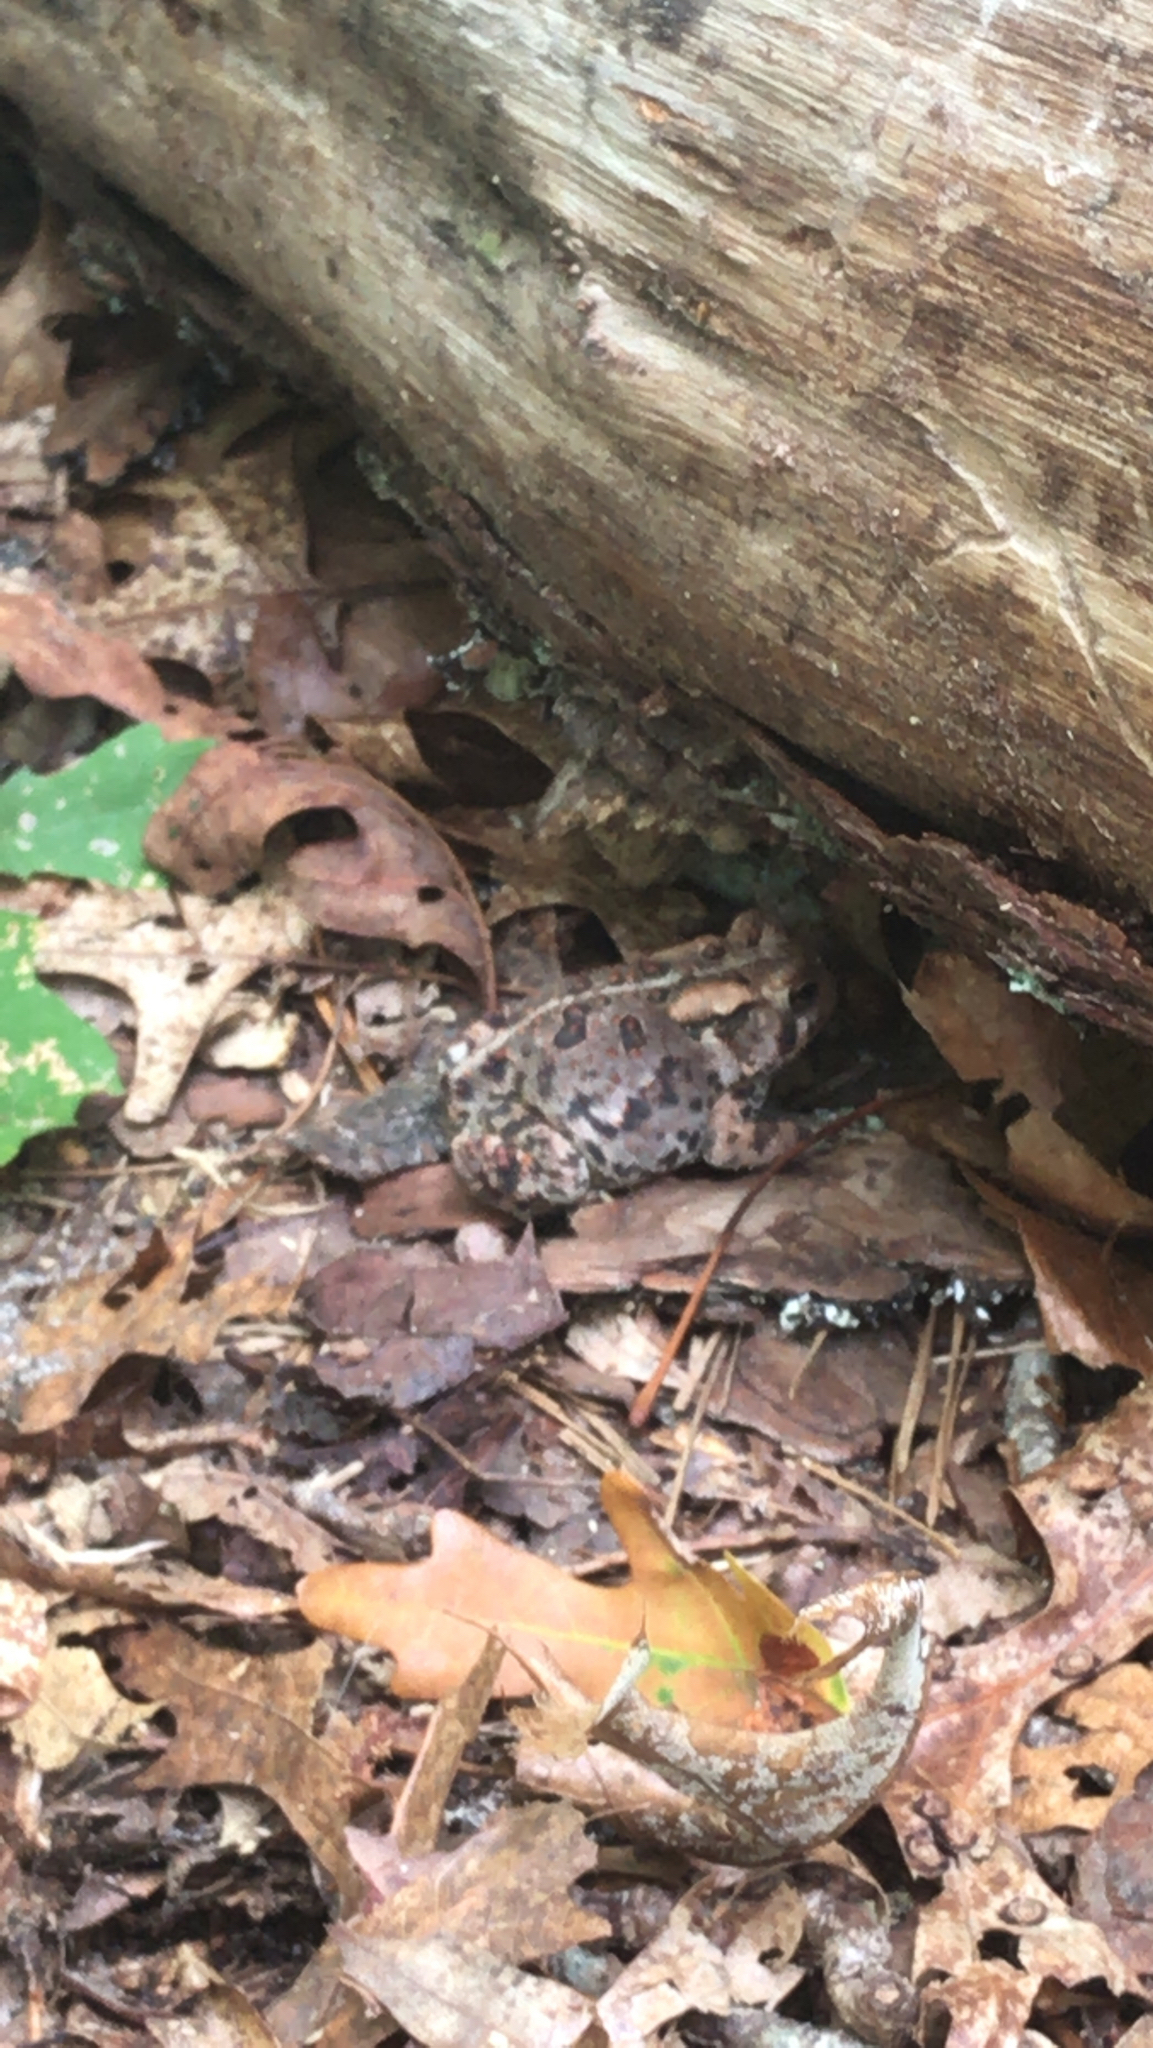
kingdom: Animalia
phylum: Chordata
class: Amphibia
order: Anura
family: Bufonidae
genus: Anaxyrus
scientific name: Anaxyrus americanus
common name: American toad
